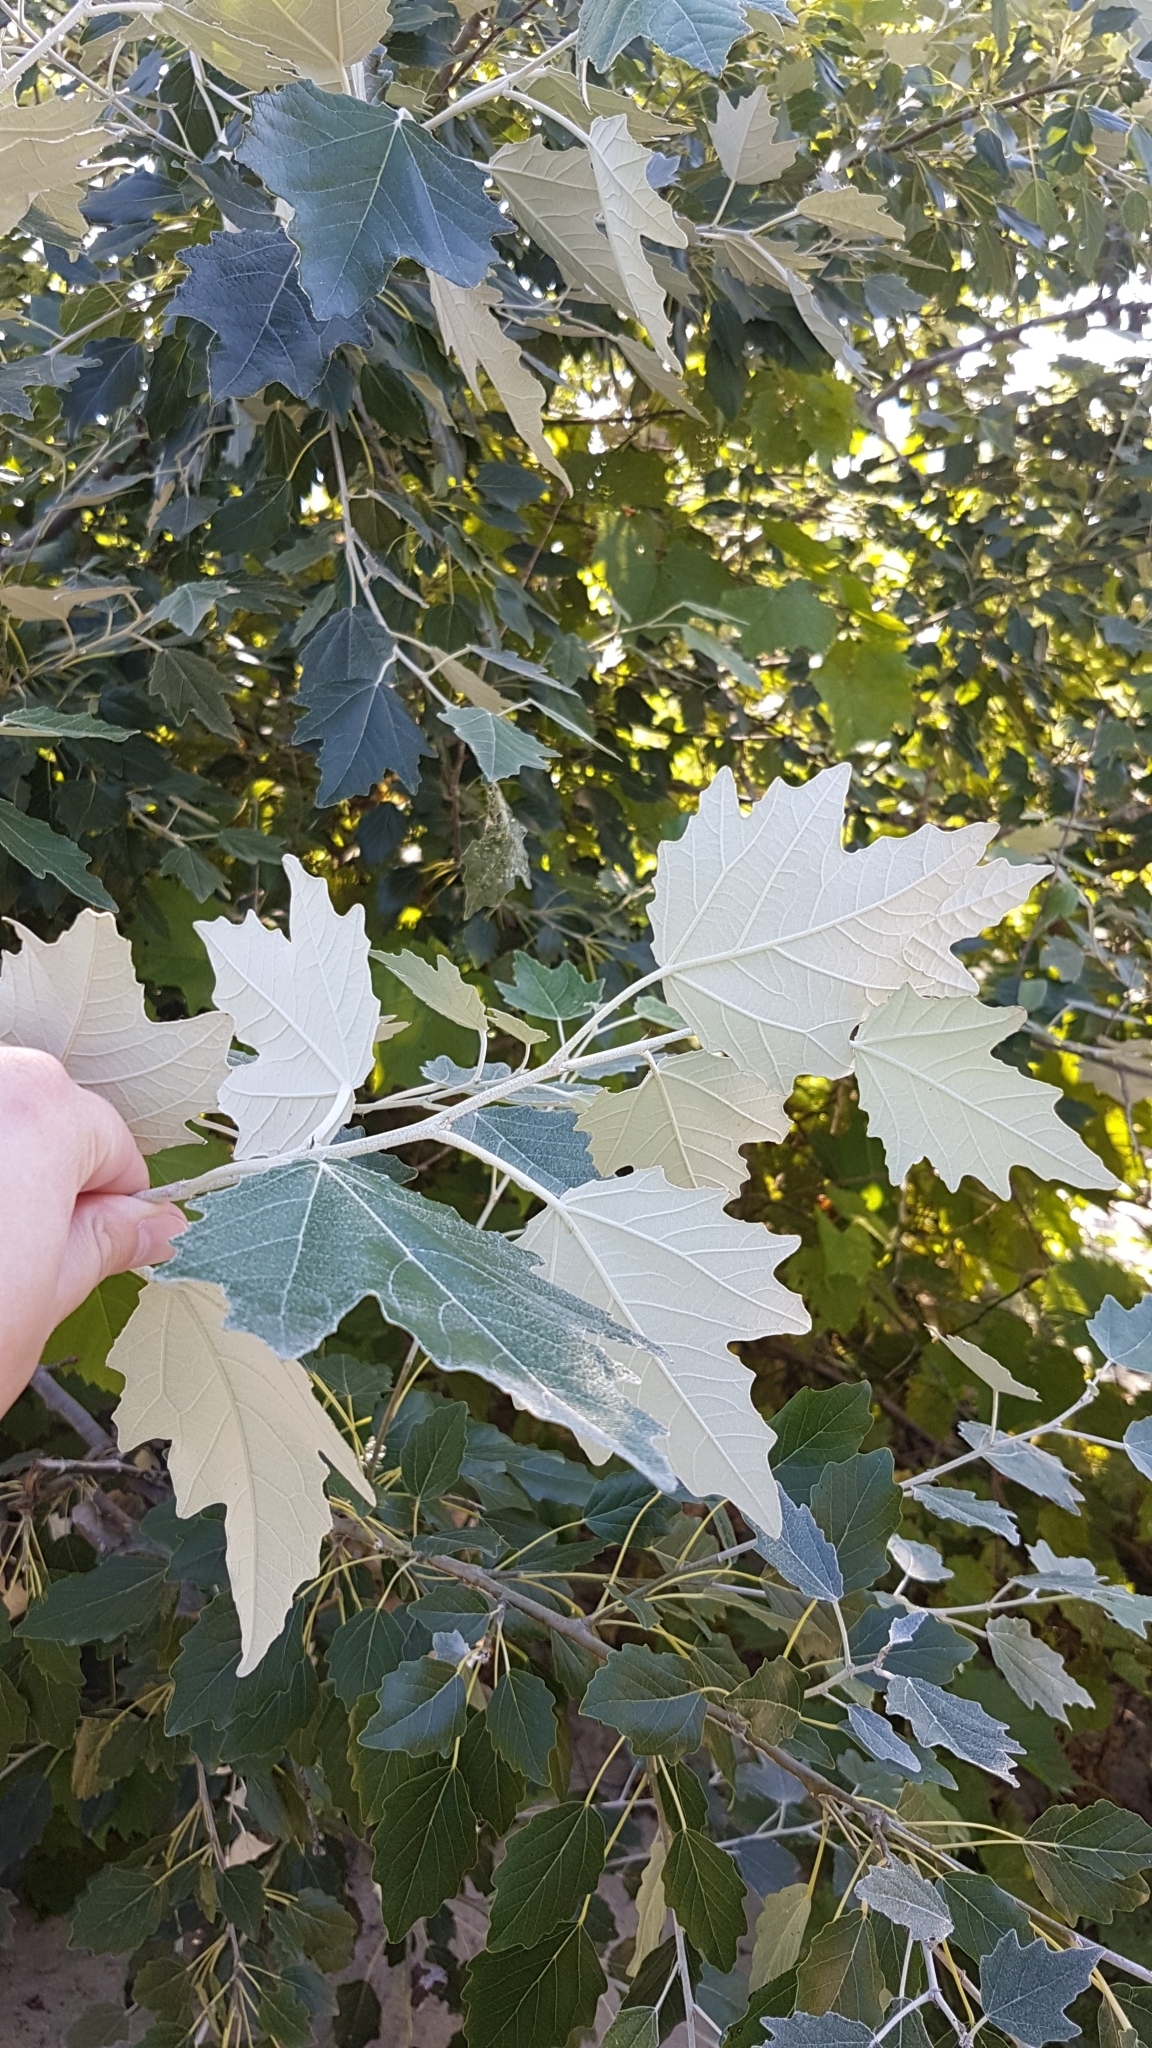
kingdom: Plantae
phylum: Tracheophyta
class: Magnoliopsida
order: Malpighiales
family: Salicaceae
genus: Populus
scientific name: Populus alba
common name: White poplar
